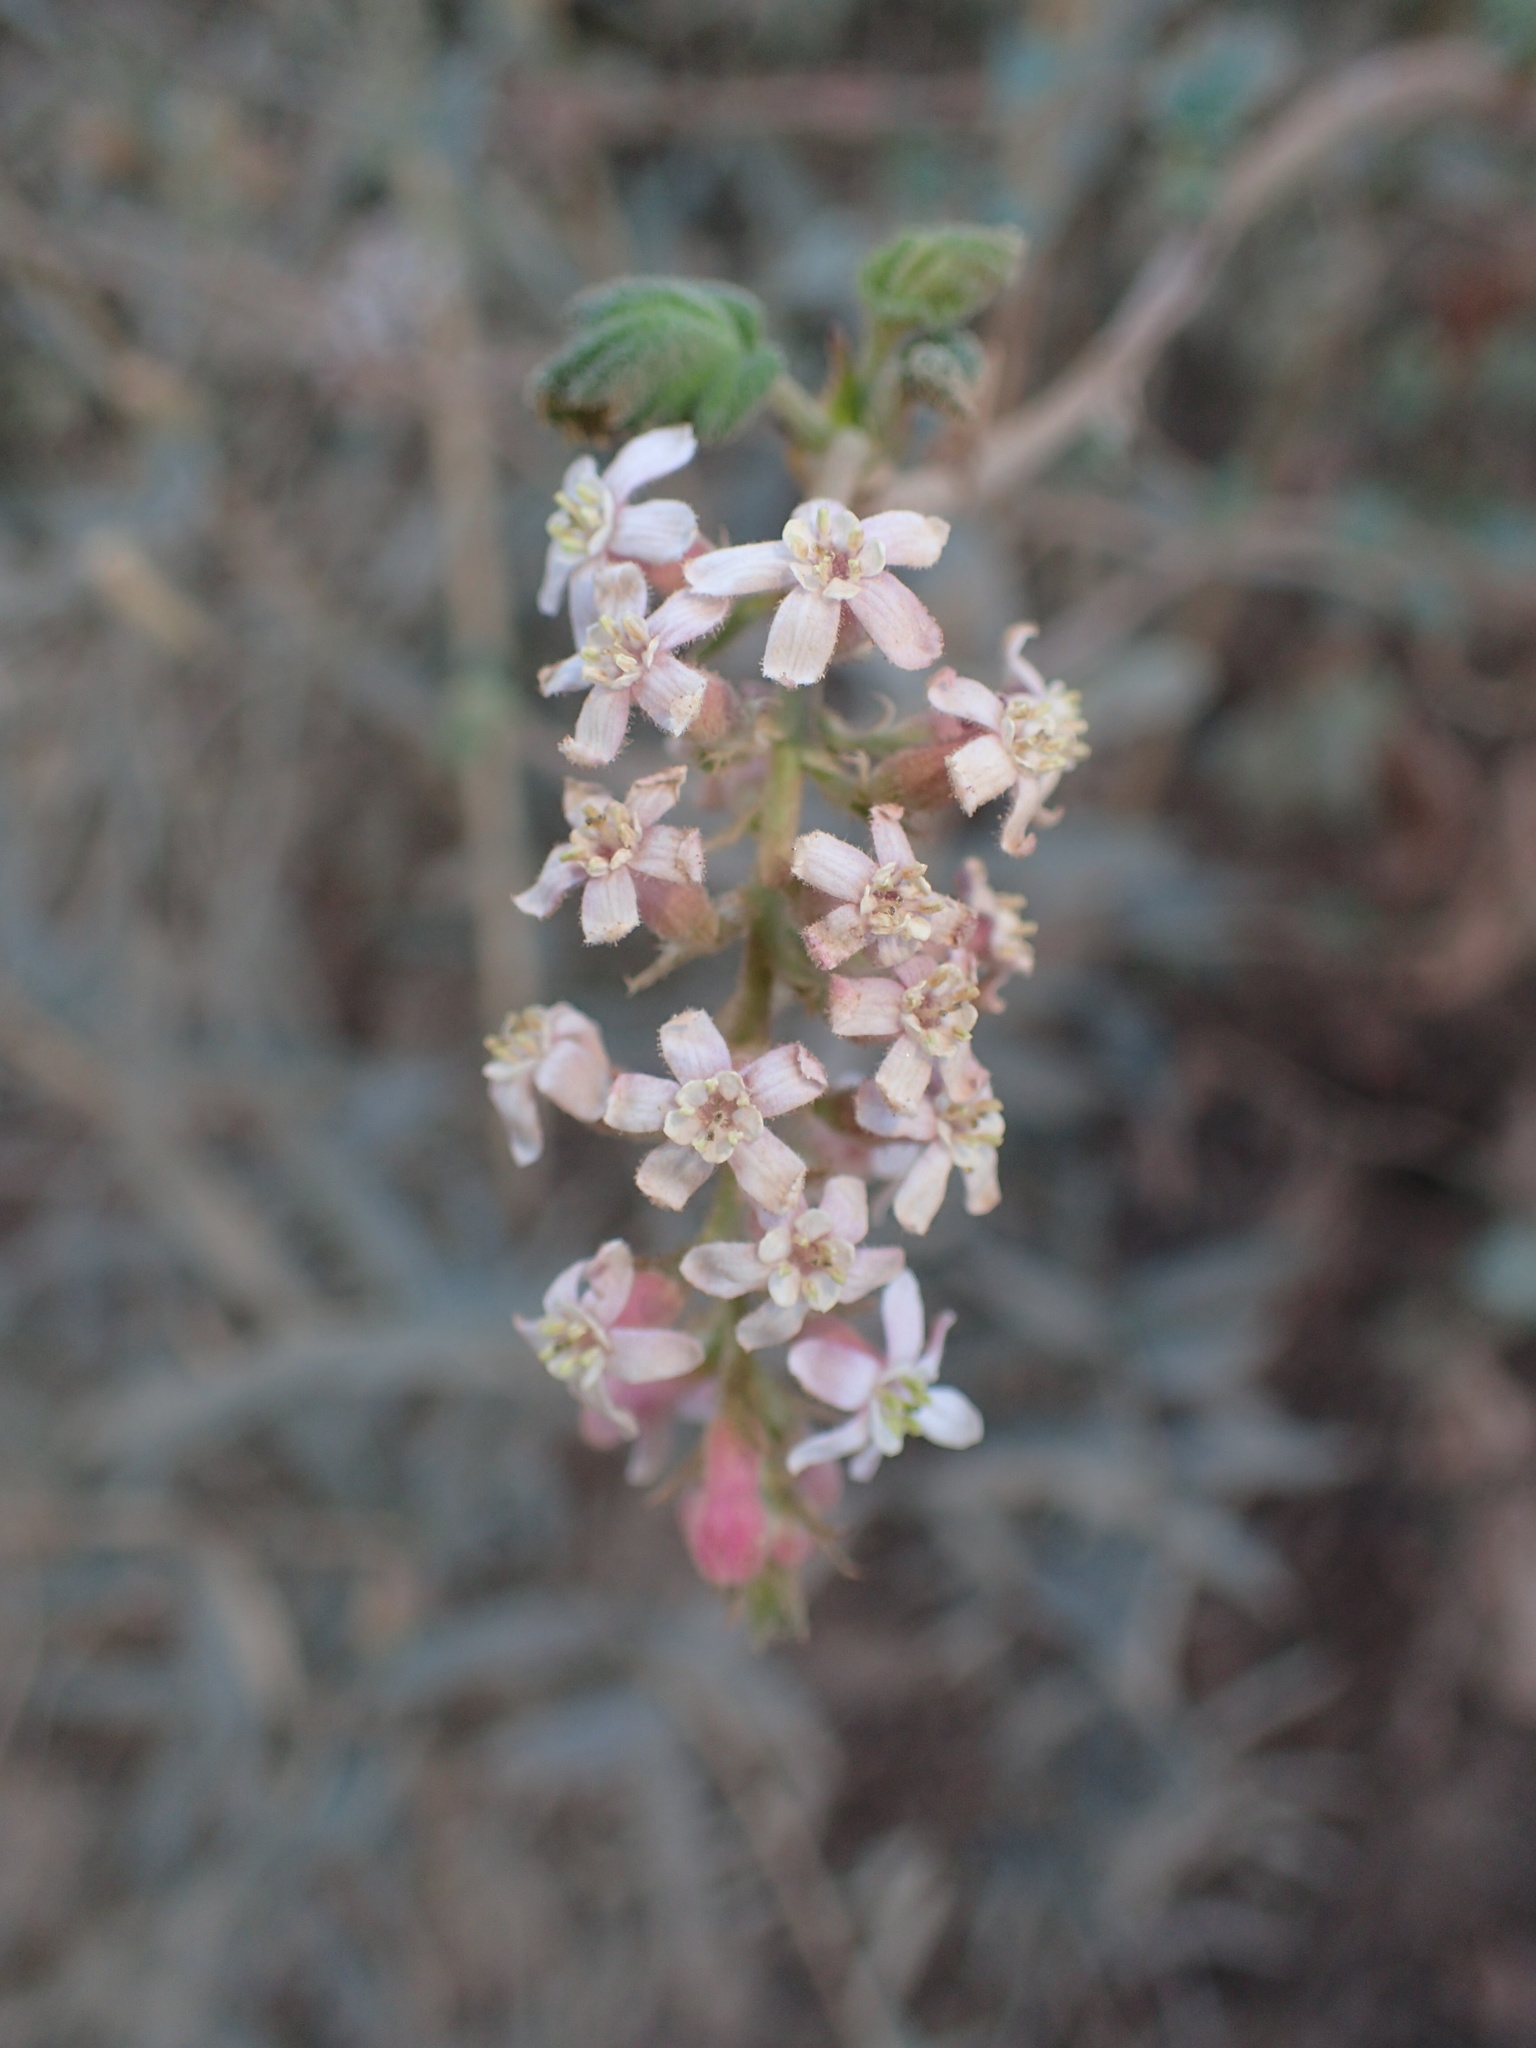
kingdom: Plantae
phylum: Tracheophyta
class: Magnoliopsida
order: Saxifragales
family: Grossulariaceae
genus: Ribes
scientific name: Ribes malvaceum
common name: Chaparral currant
